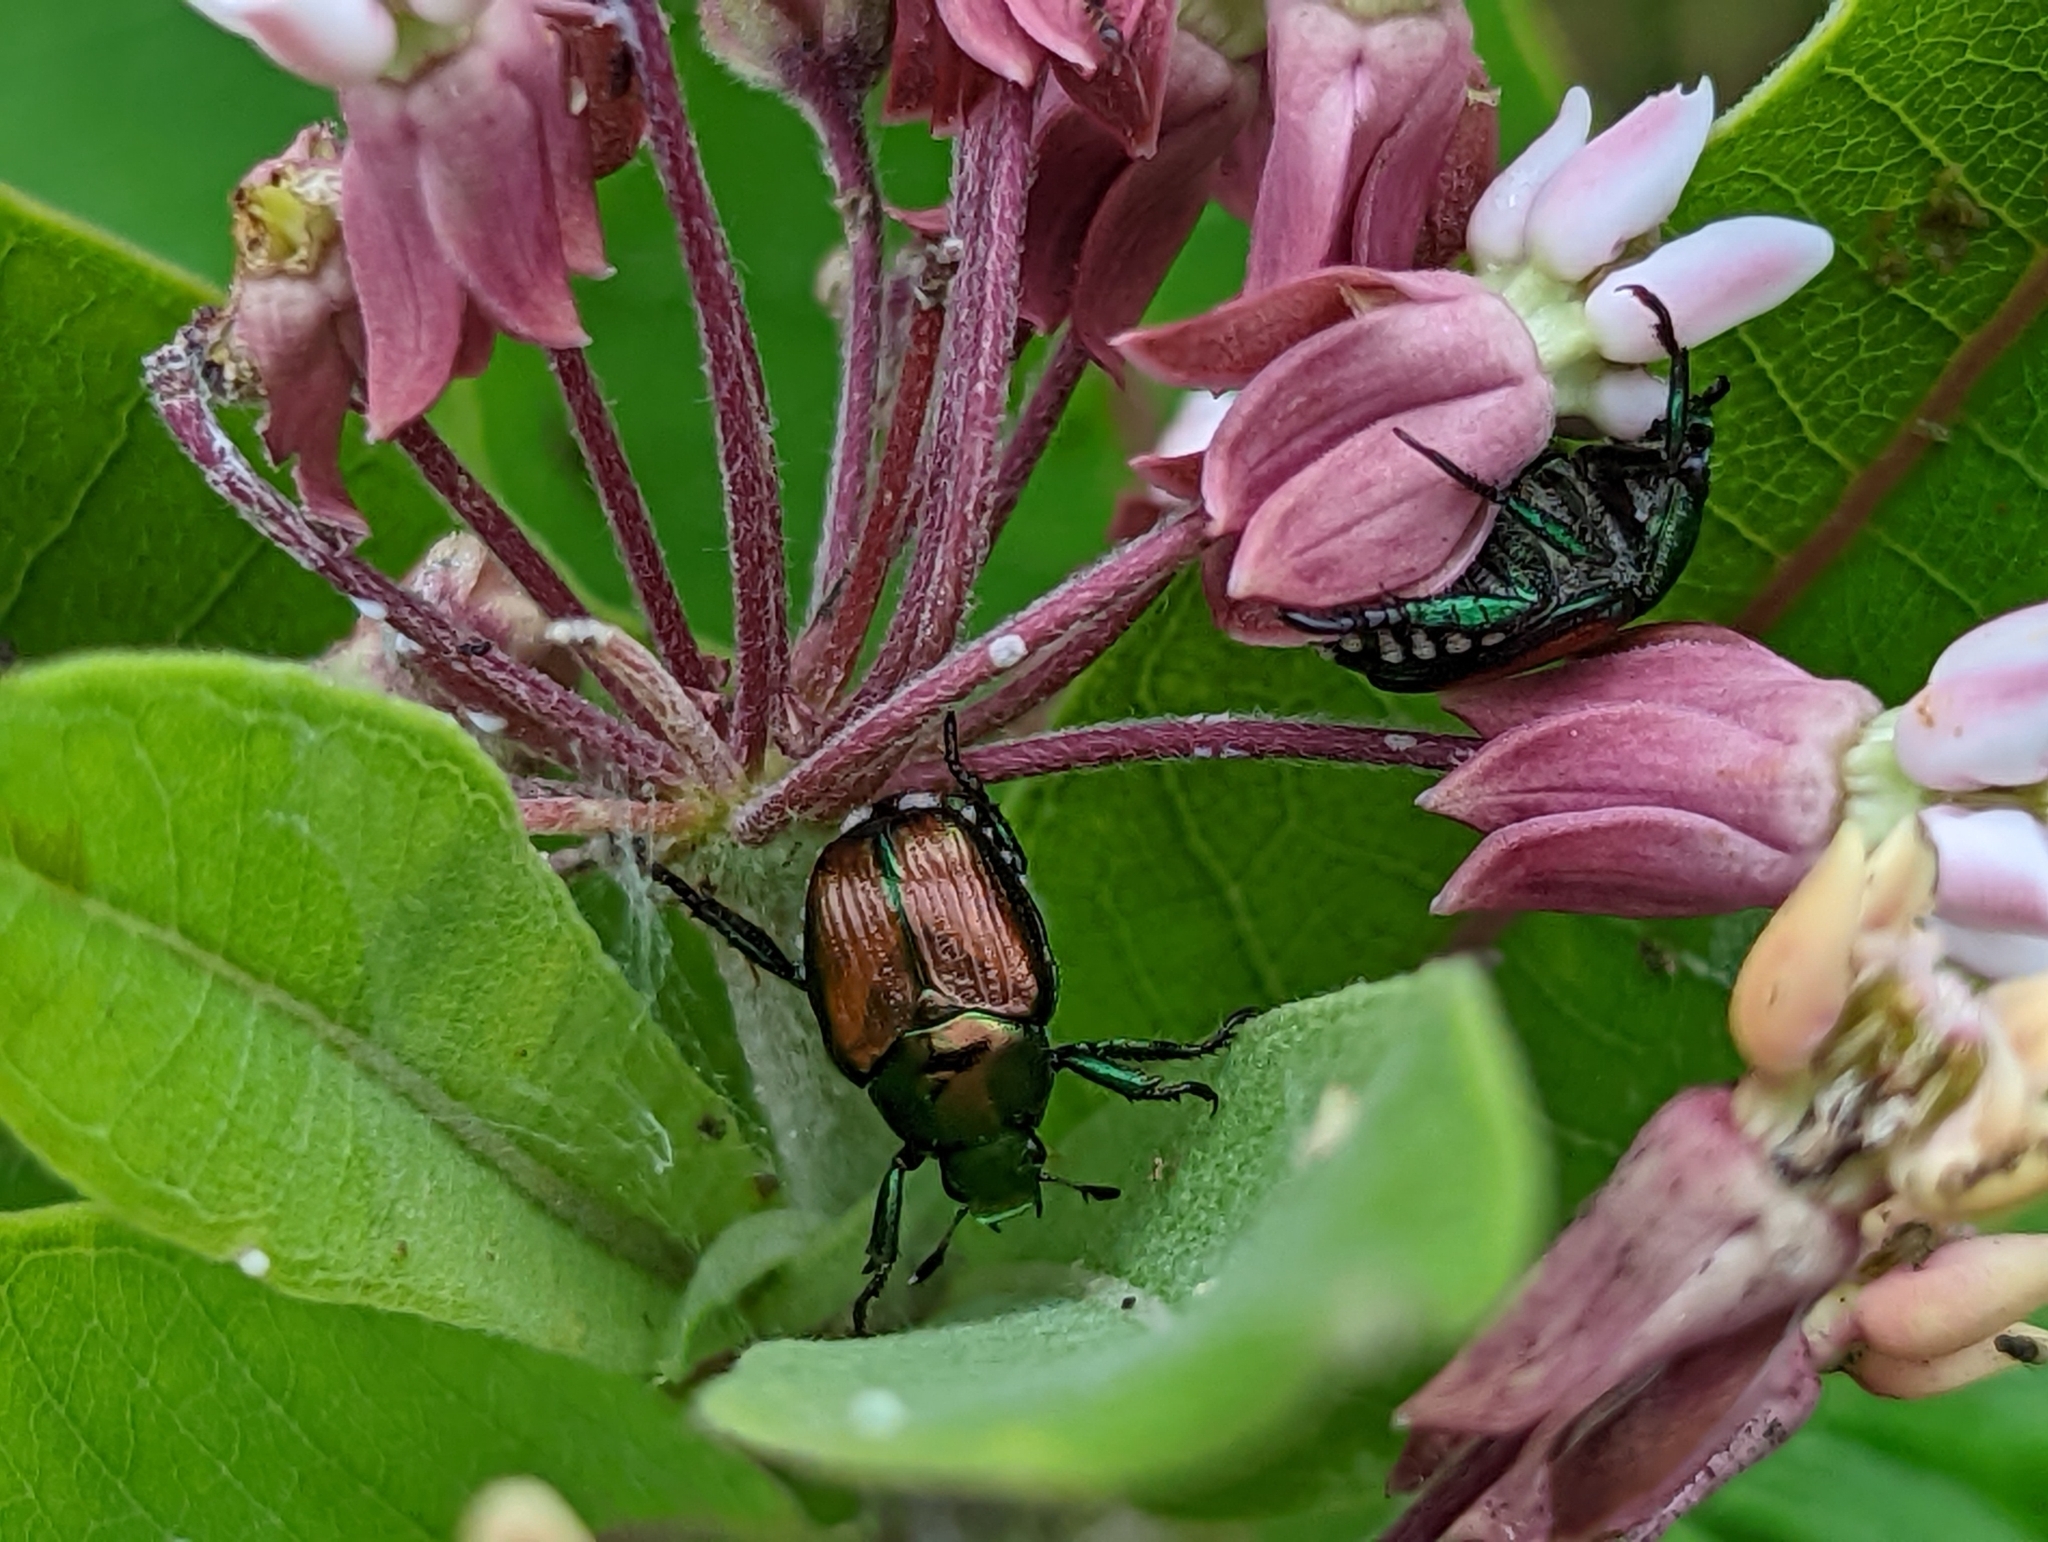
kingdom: Animalia
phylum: Arthropoda
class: Insecta
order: Coleoptera
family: Scarabaeidae
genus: Popillia
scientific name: Popillia japonica
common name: Japanese beetle
